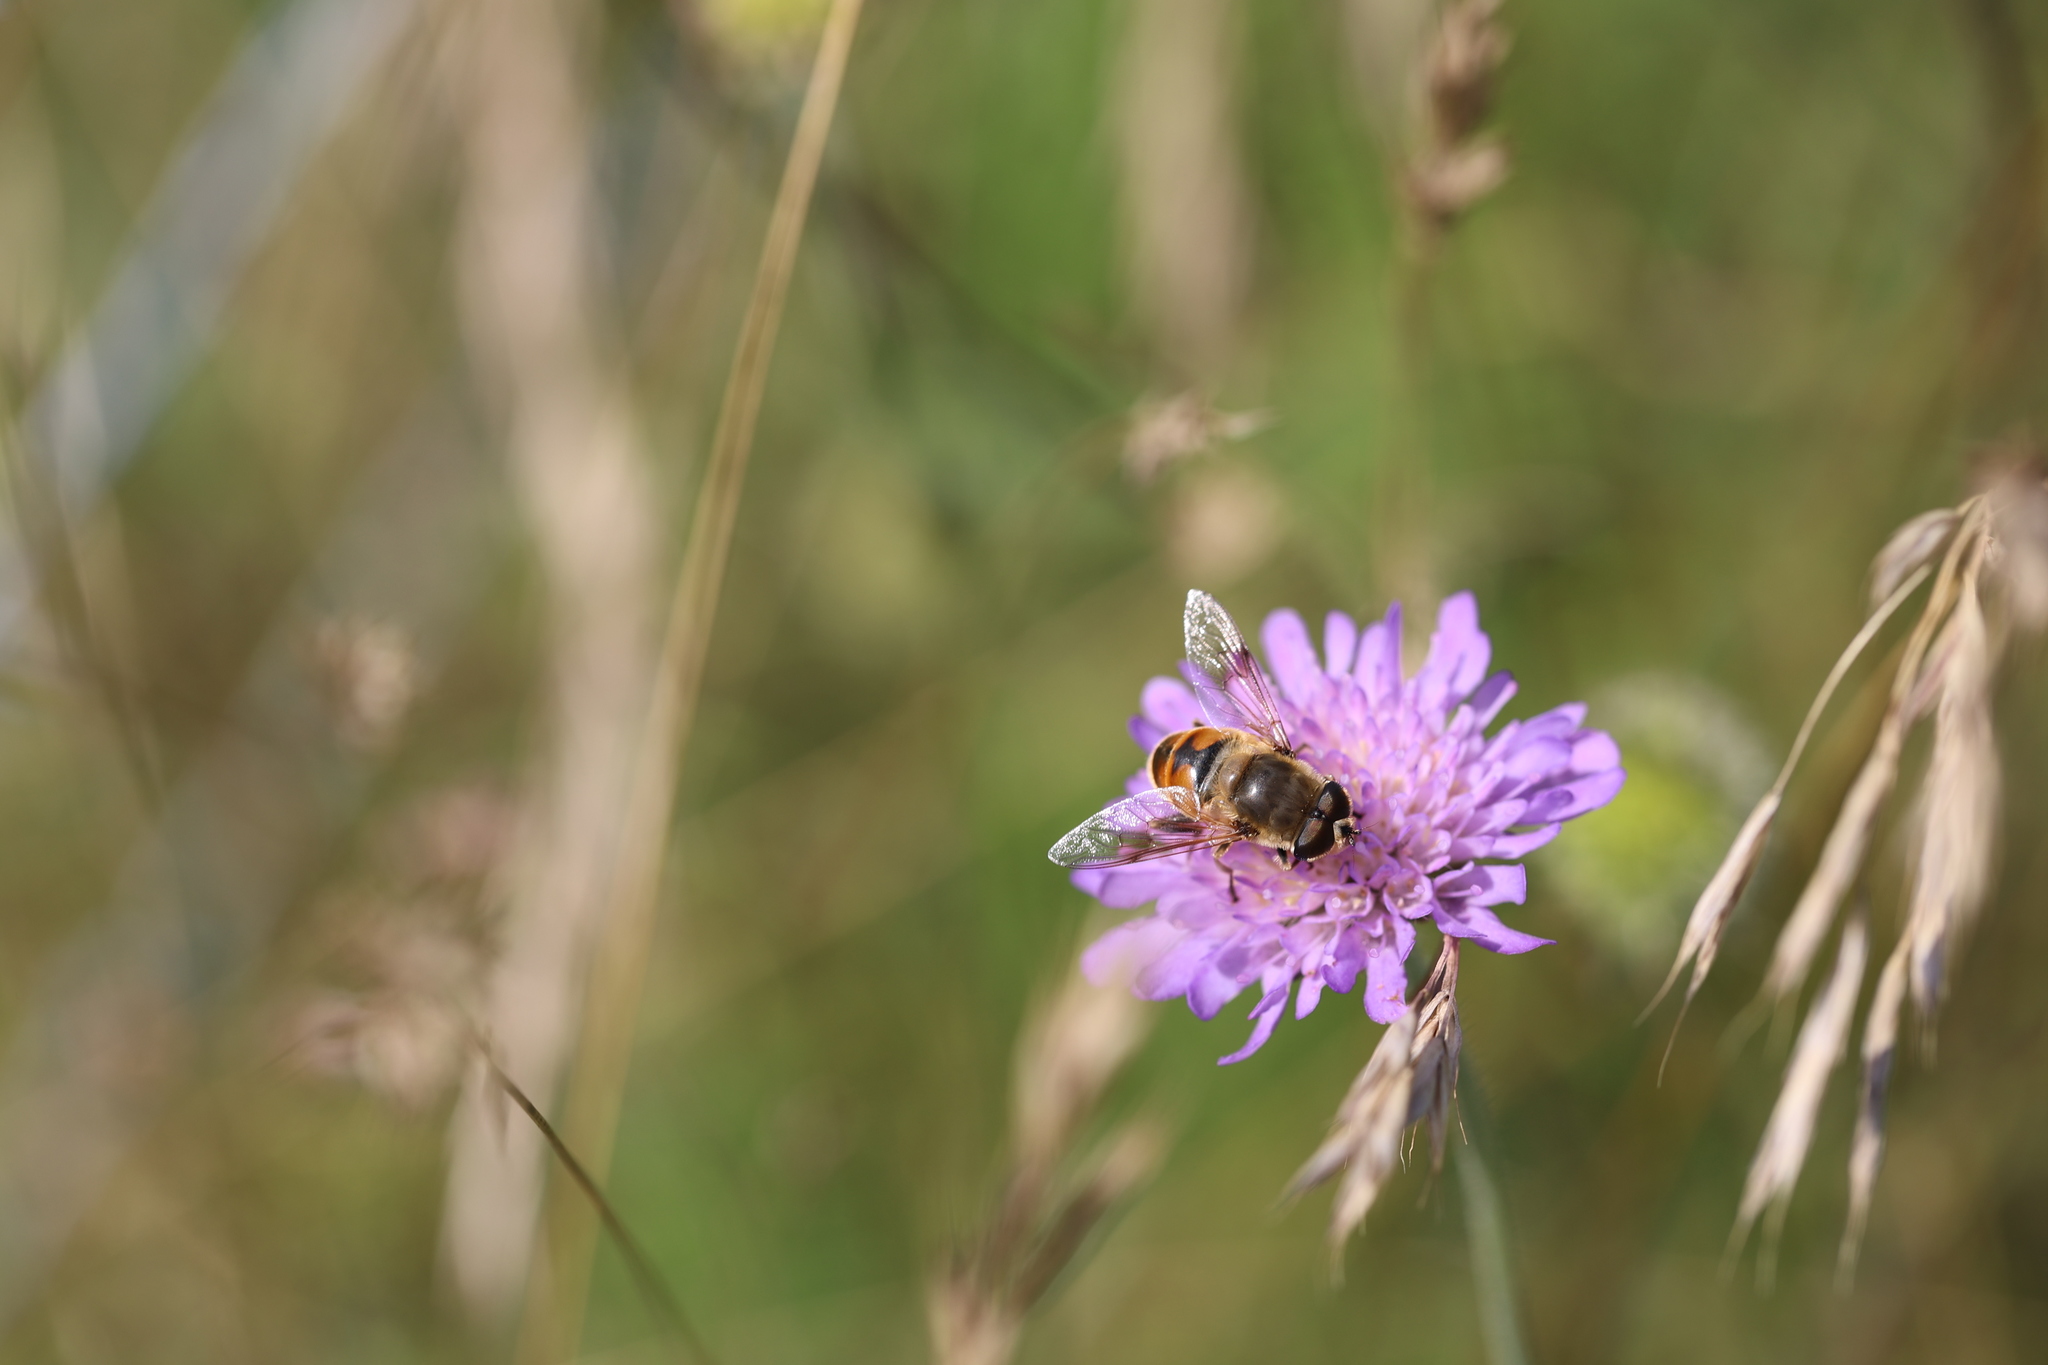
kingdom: Animalia
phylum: Arthropoda
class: Insecta
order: Diptera
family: Syrphidae
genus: Eristalis
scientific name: Eristalis tenax
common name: Drone fly
